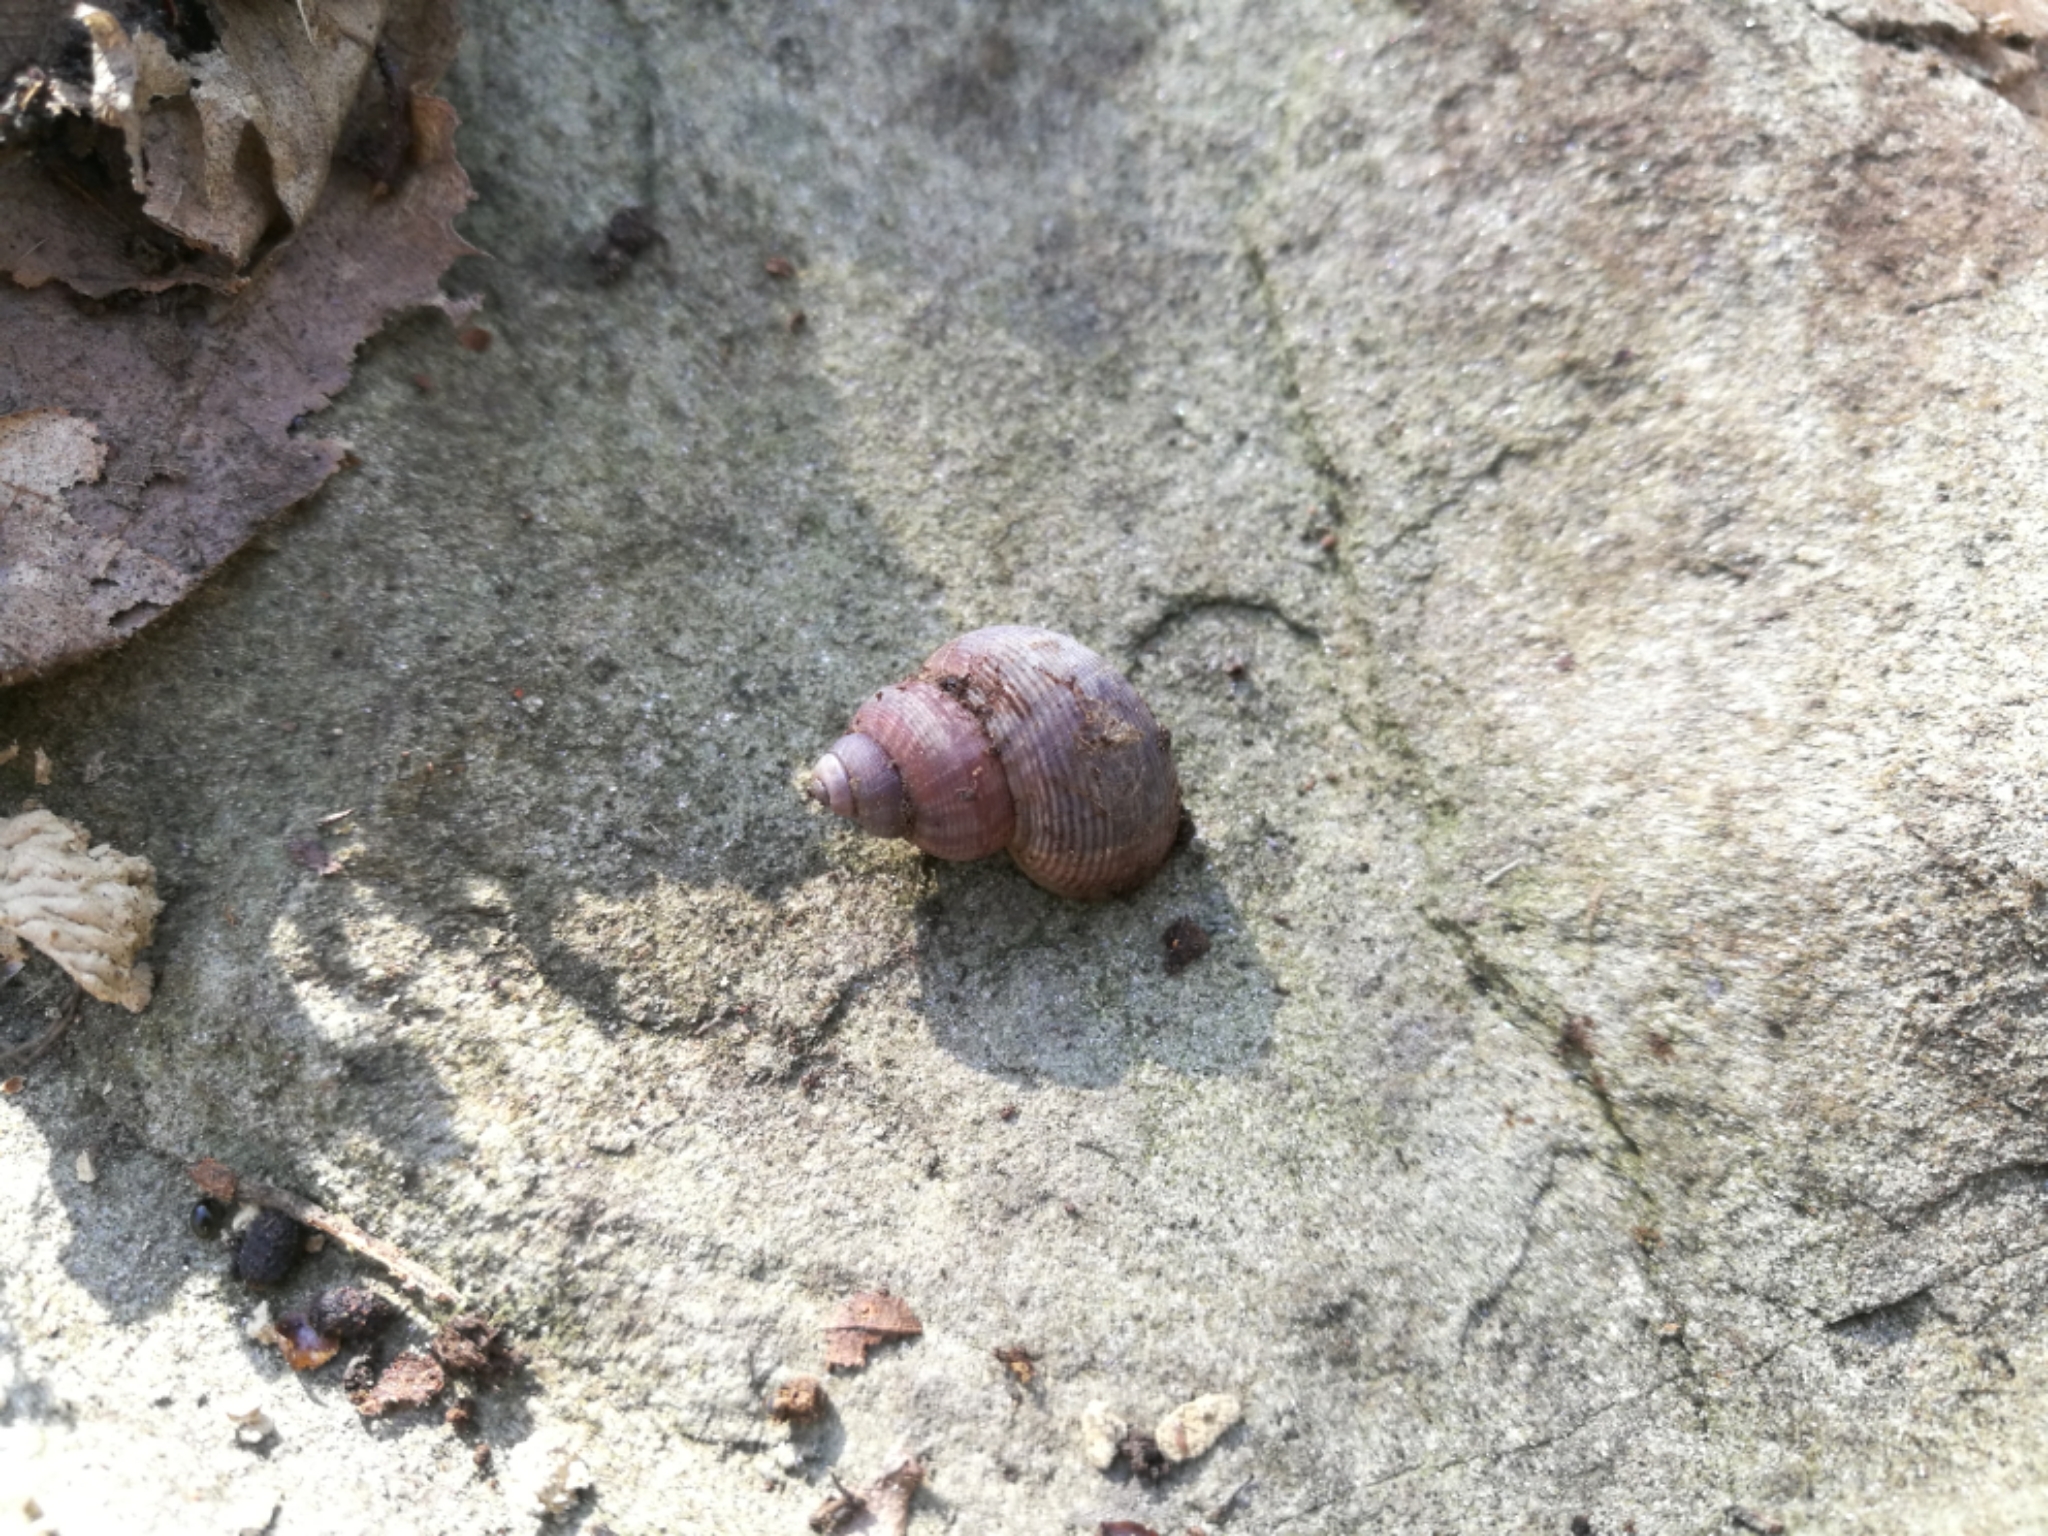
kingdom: Animalia
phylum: Mollusca
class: Gastropoda
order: Littorinimorpha
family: Pomatiidae
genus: Pomatias
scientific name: Pomatias elegans
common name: Red-mouthed snail
